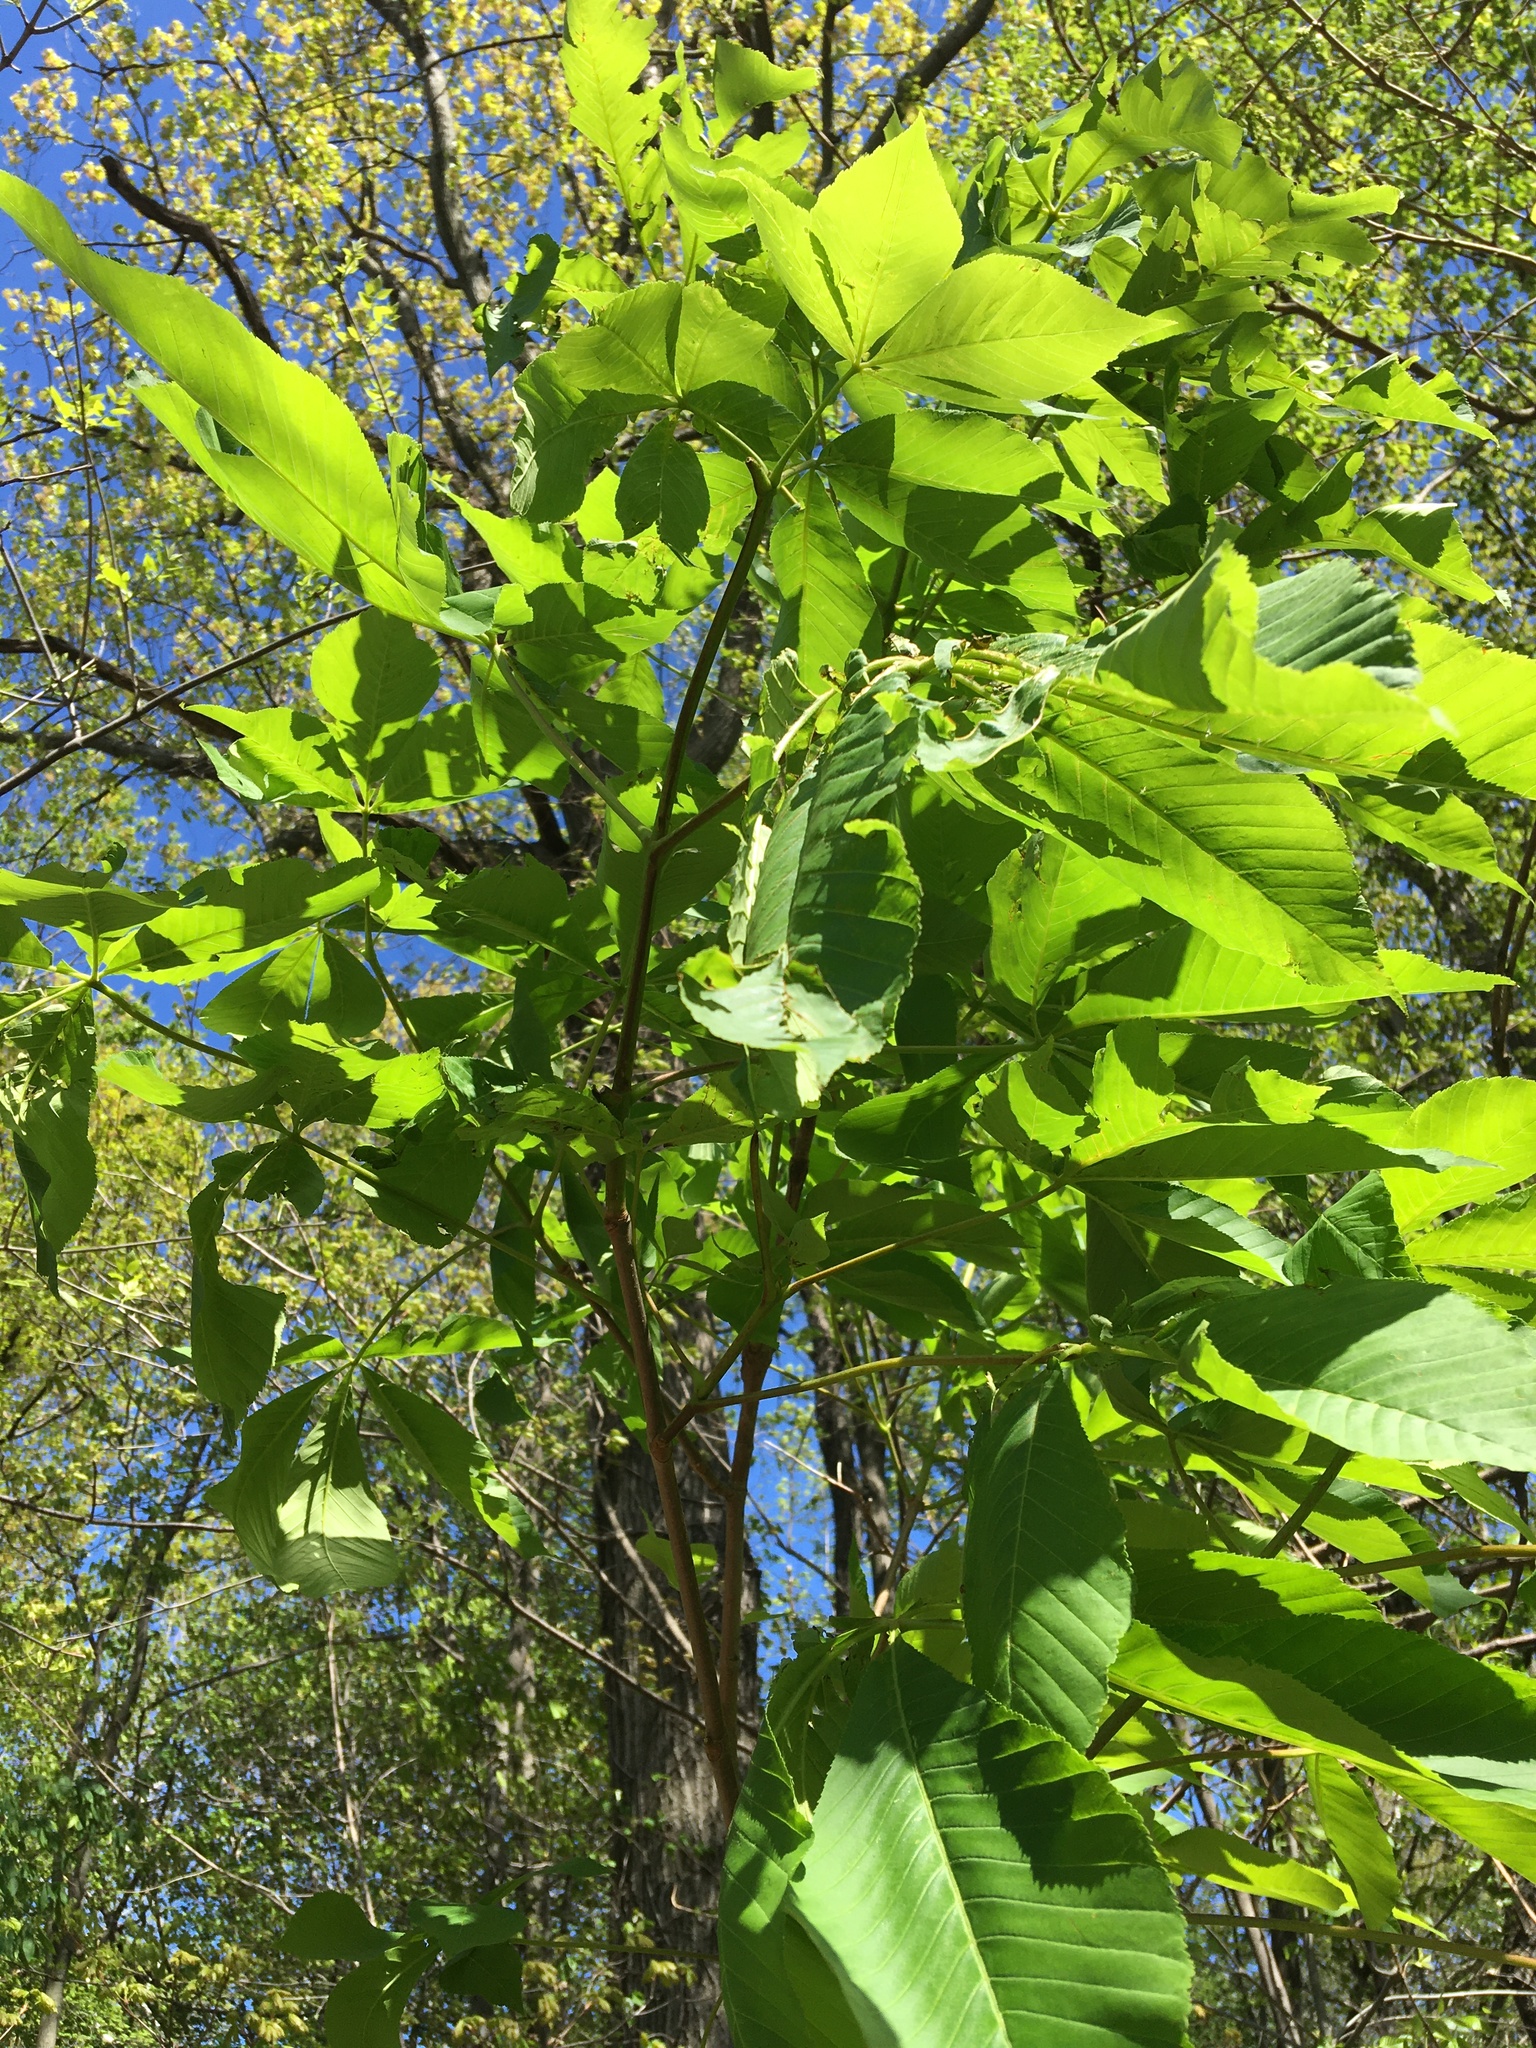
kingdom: Plantae
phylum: Tracheophyta
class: Magnoliopsida
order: Sapindales
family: Sapindaceae
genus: Aesculus
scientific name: Aesculus flava
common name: Yellow buckeye
